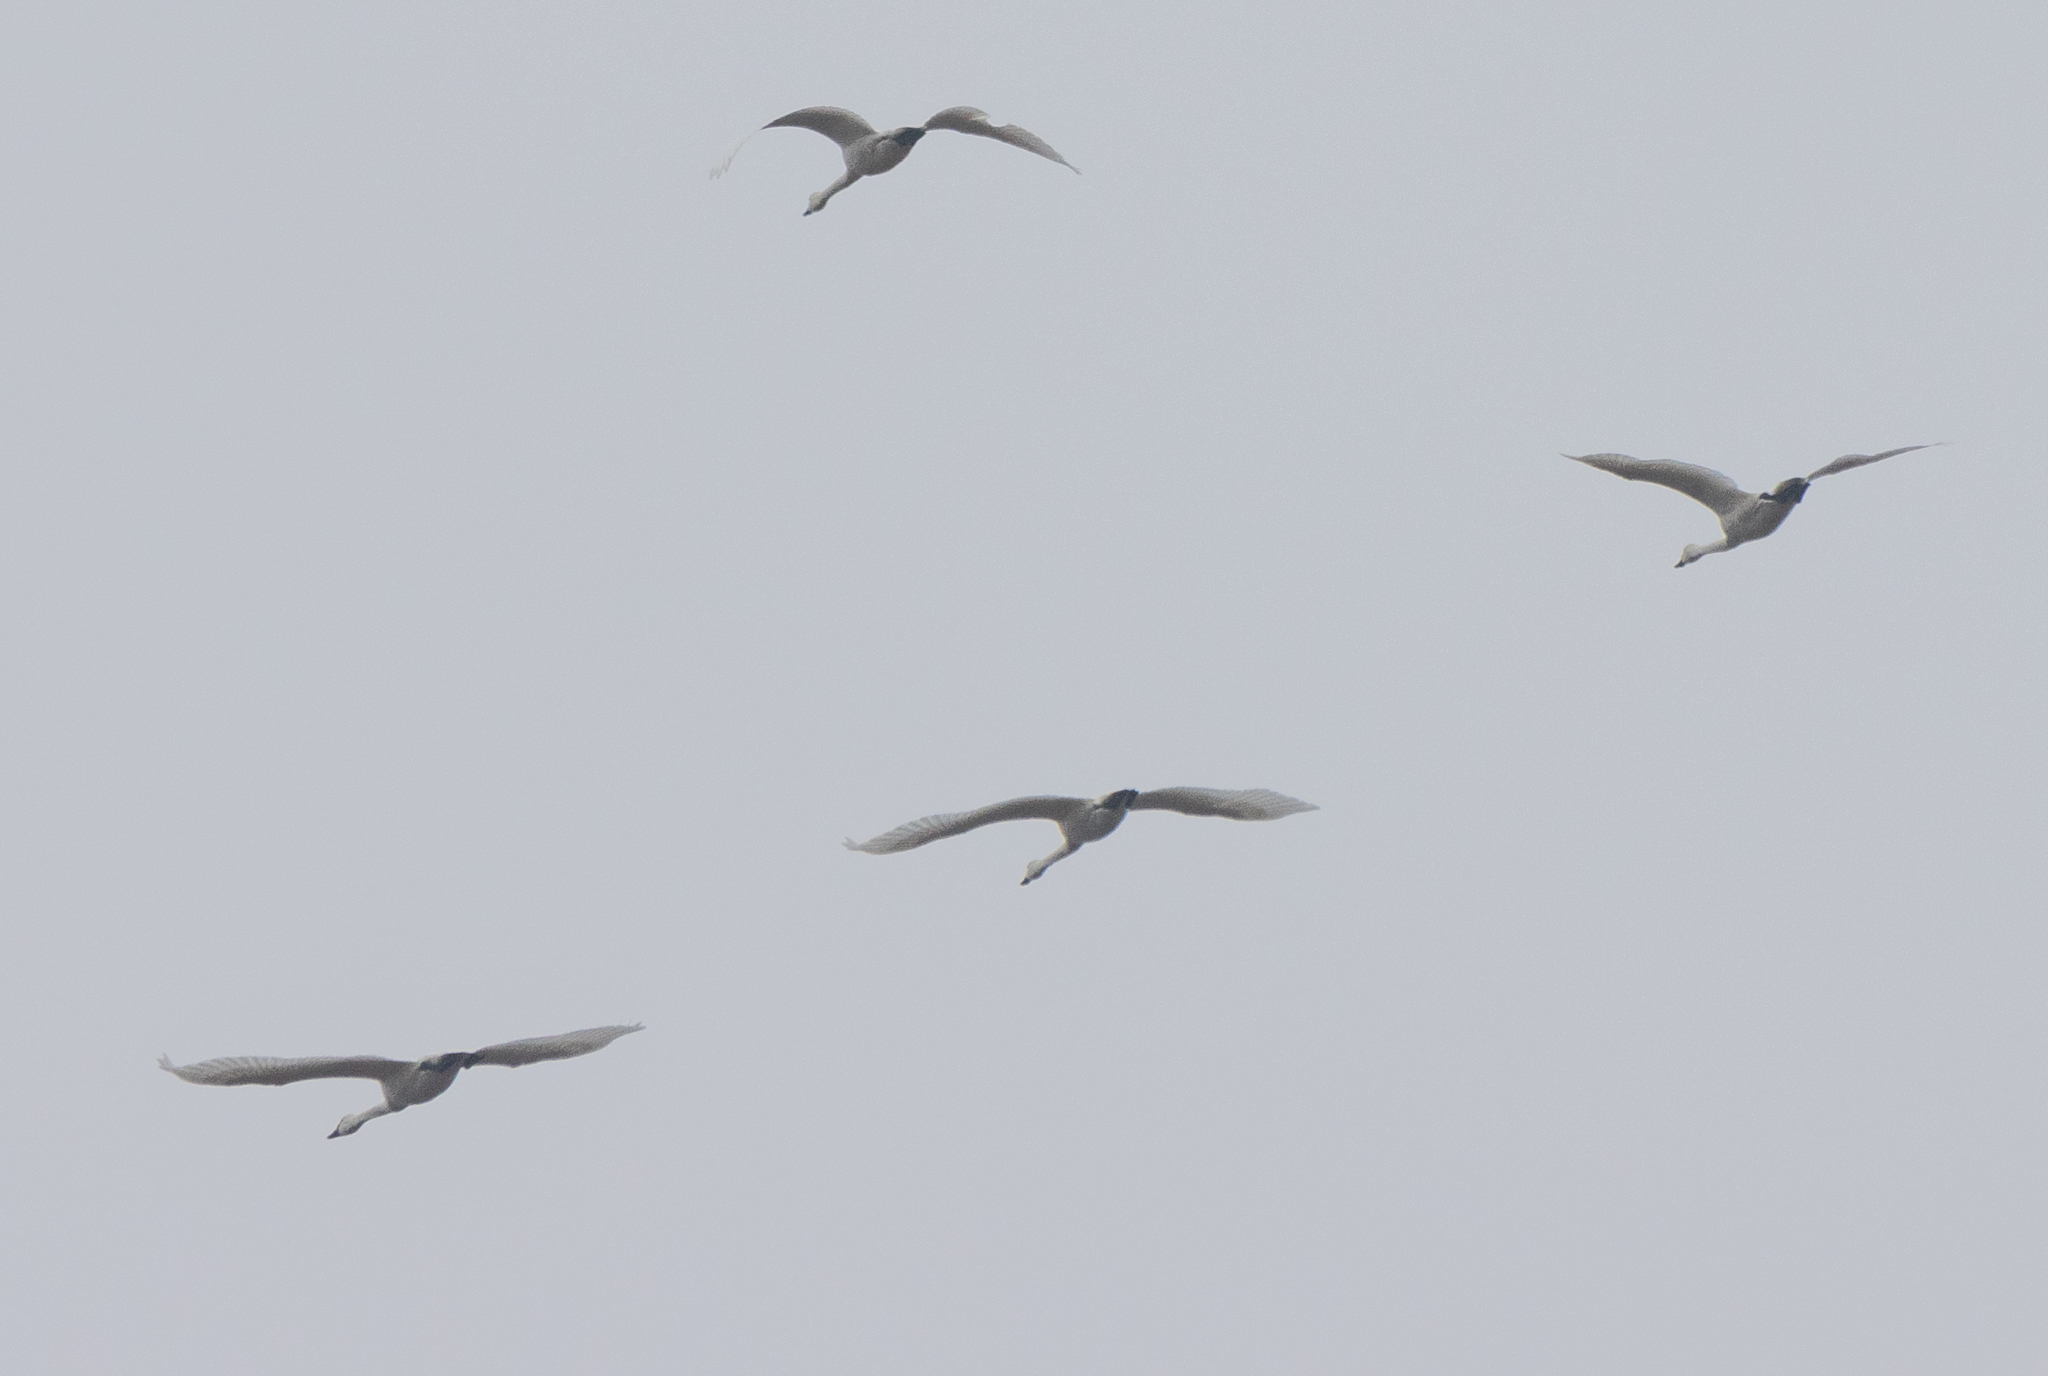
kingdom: Animalia
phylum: Chordata
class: Aves
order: Anseriformes
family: Anatidae
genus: Cygnus
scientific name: Cygnus columbianus
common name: Tundra swan
